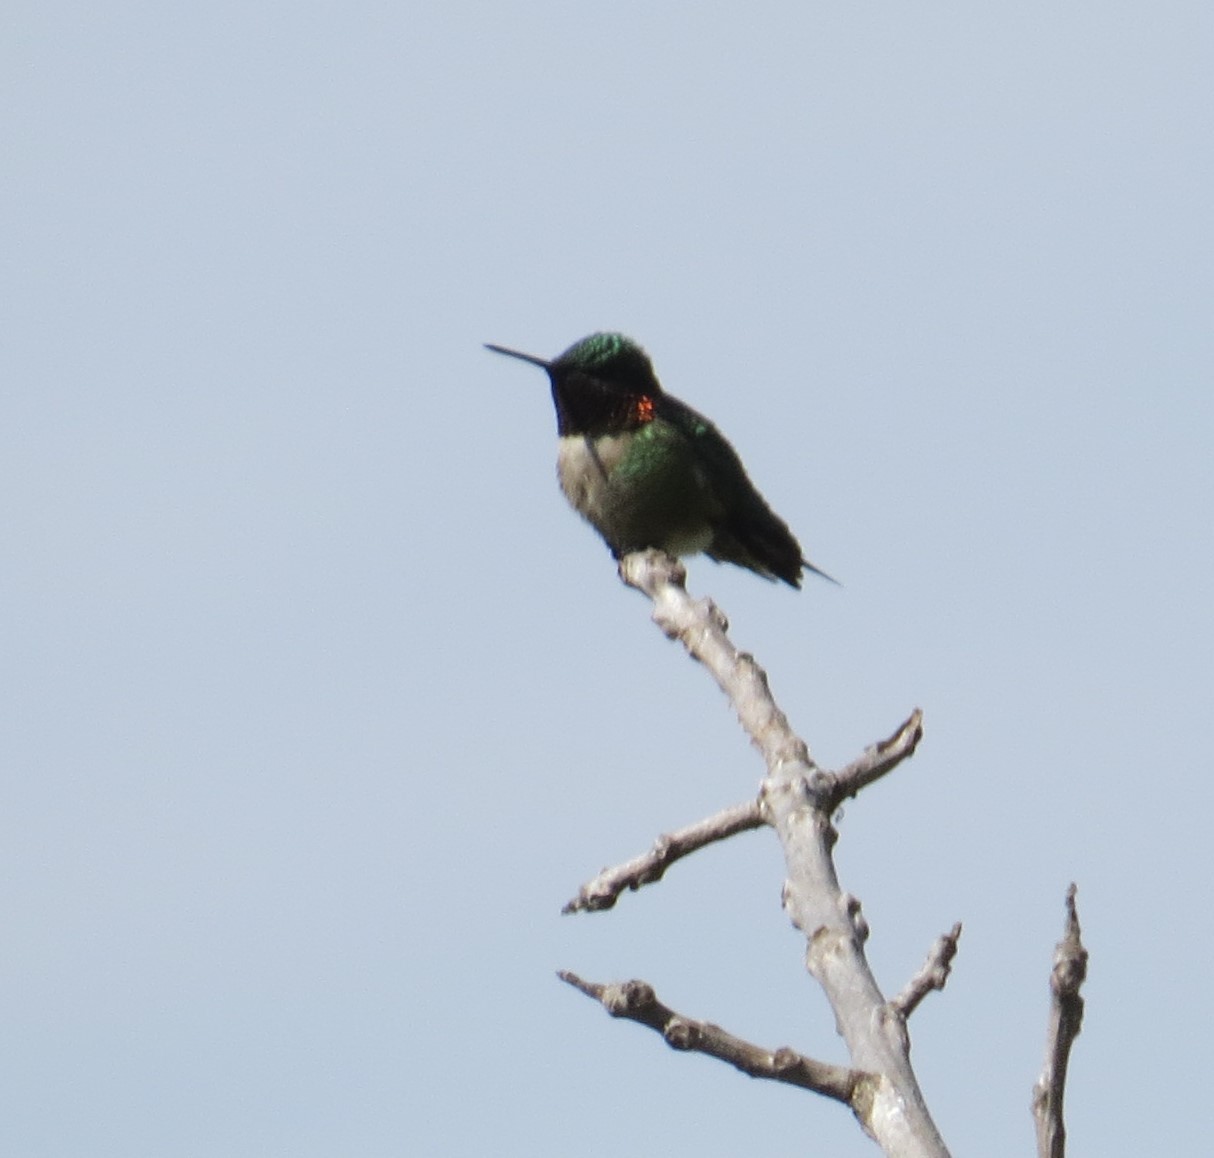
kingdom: Animalia
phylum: Chordata
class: Aves
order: Apodiformes
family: Trochilidae
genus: Archilochus
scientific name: Archilochus colubris
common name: Ruby-throated hummingbird
